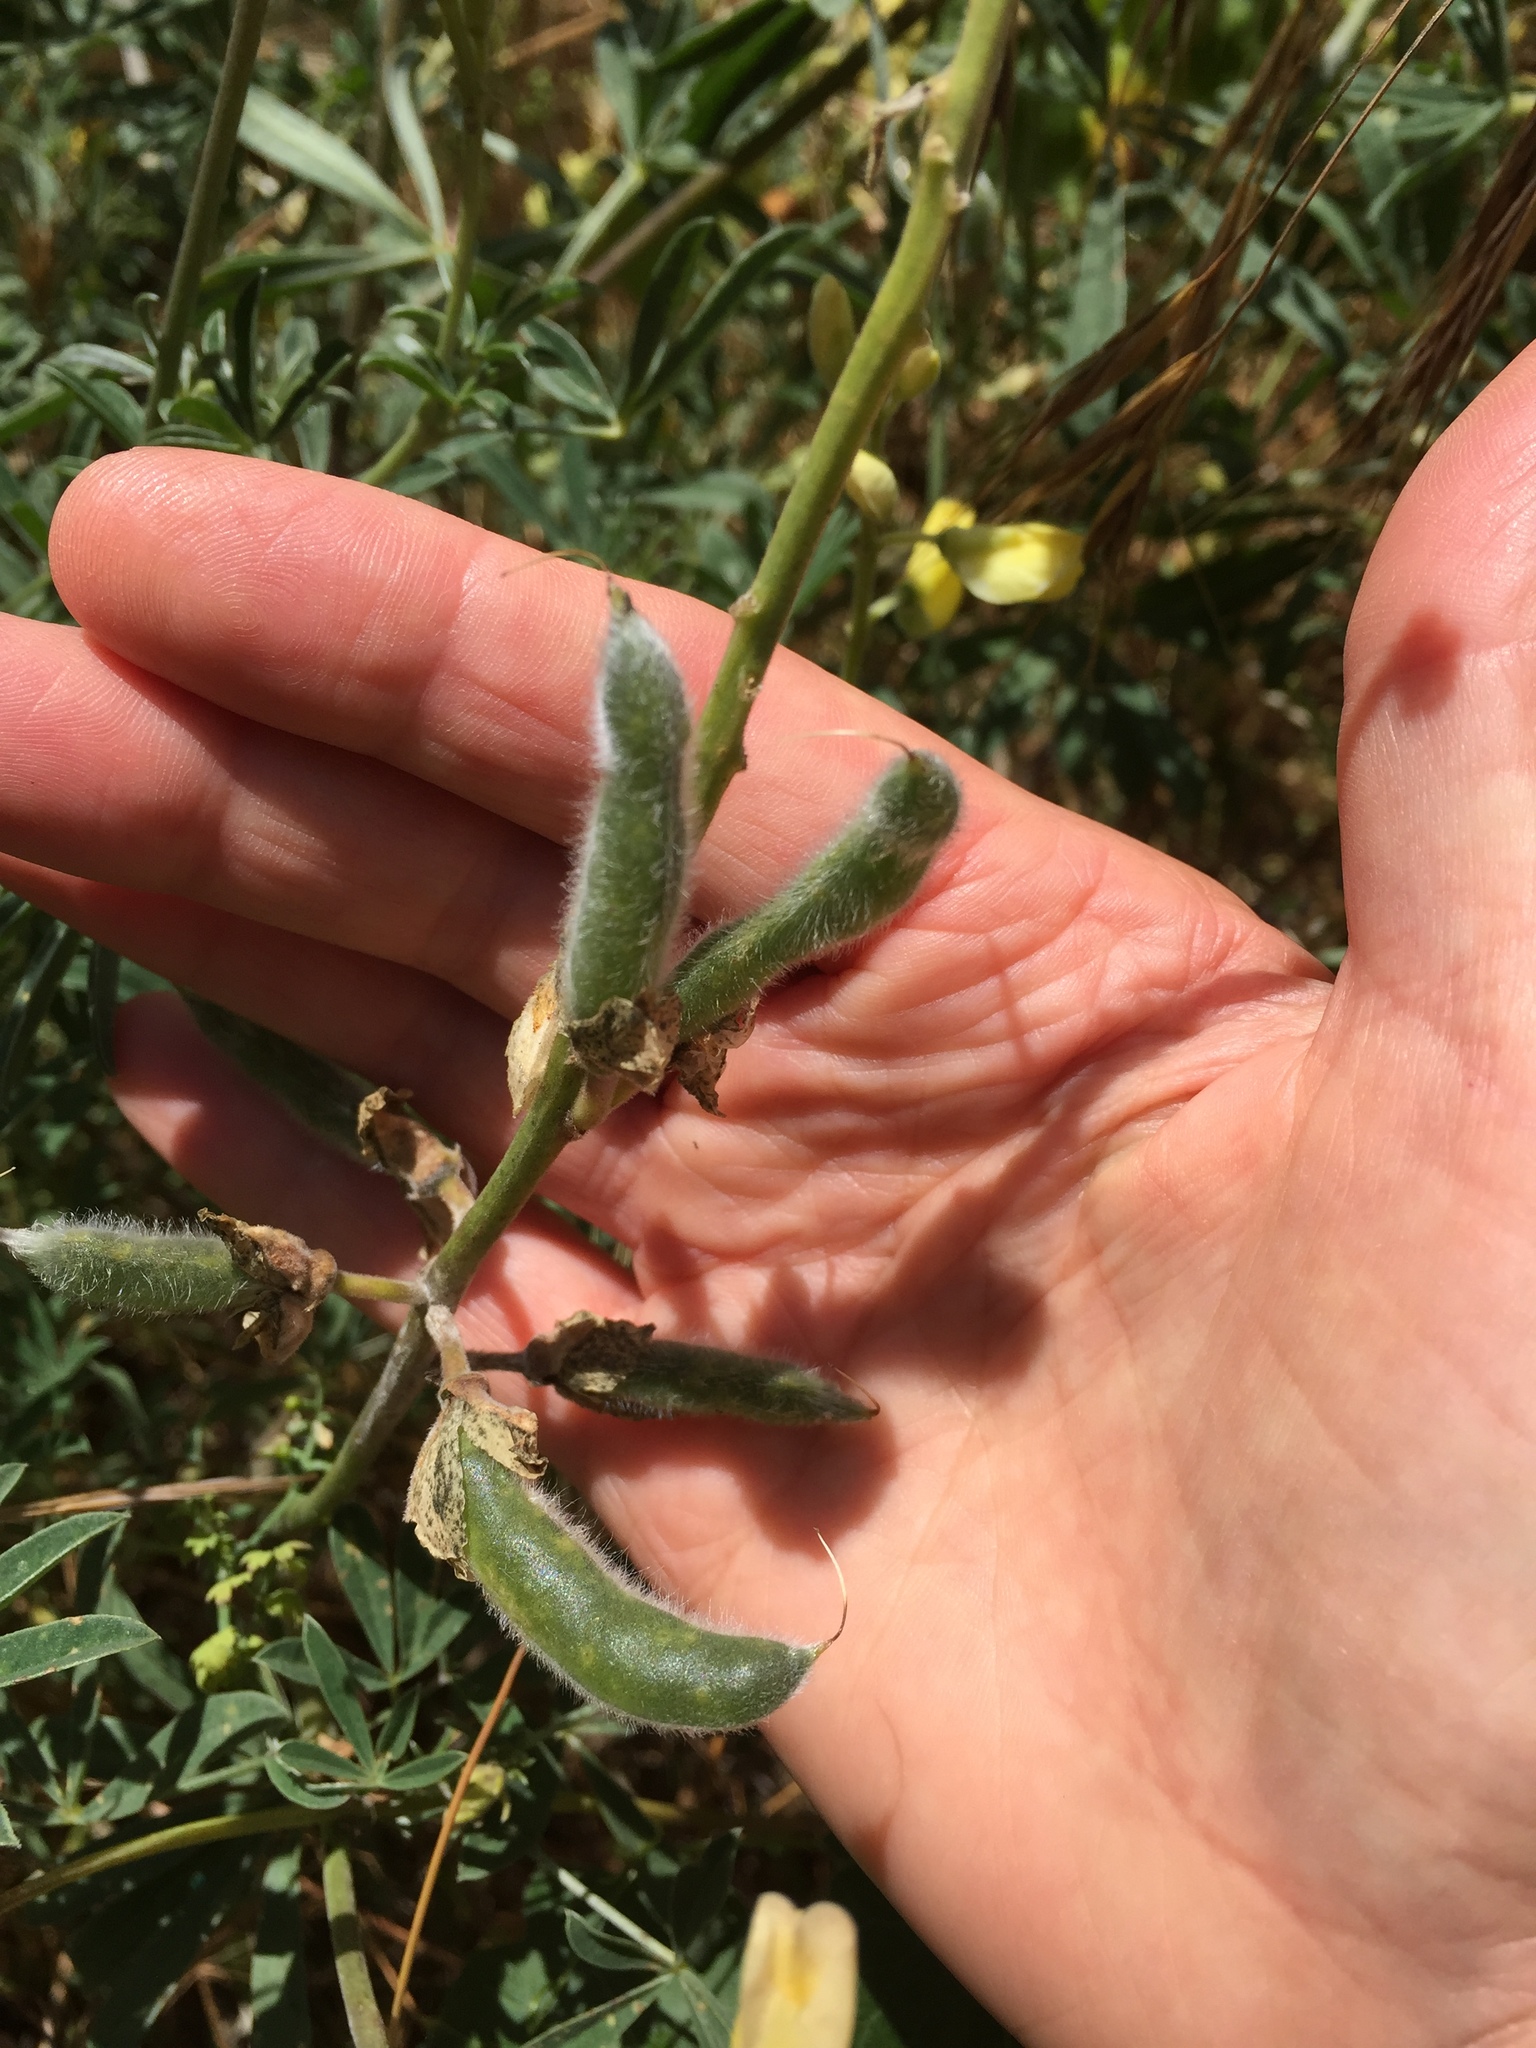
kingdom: Plantae
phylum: Tracheophyta
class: Magnoliopsida
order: Fabales
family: Fabaceae
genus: Lupinus
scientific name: Lupinus arboreus
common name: Yellow bush lupine
